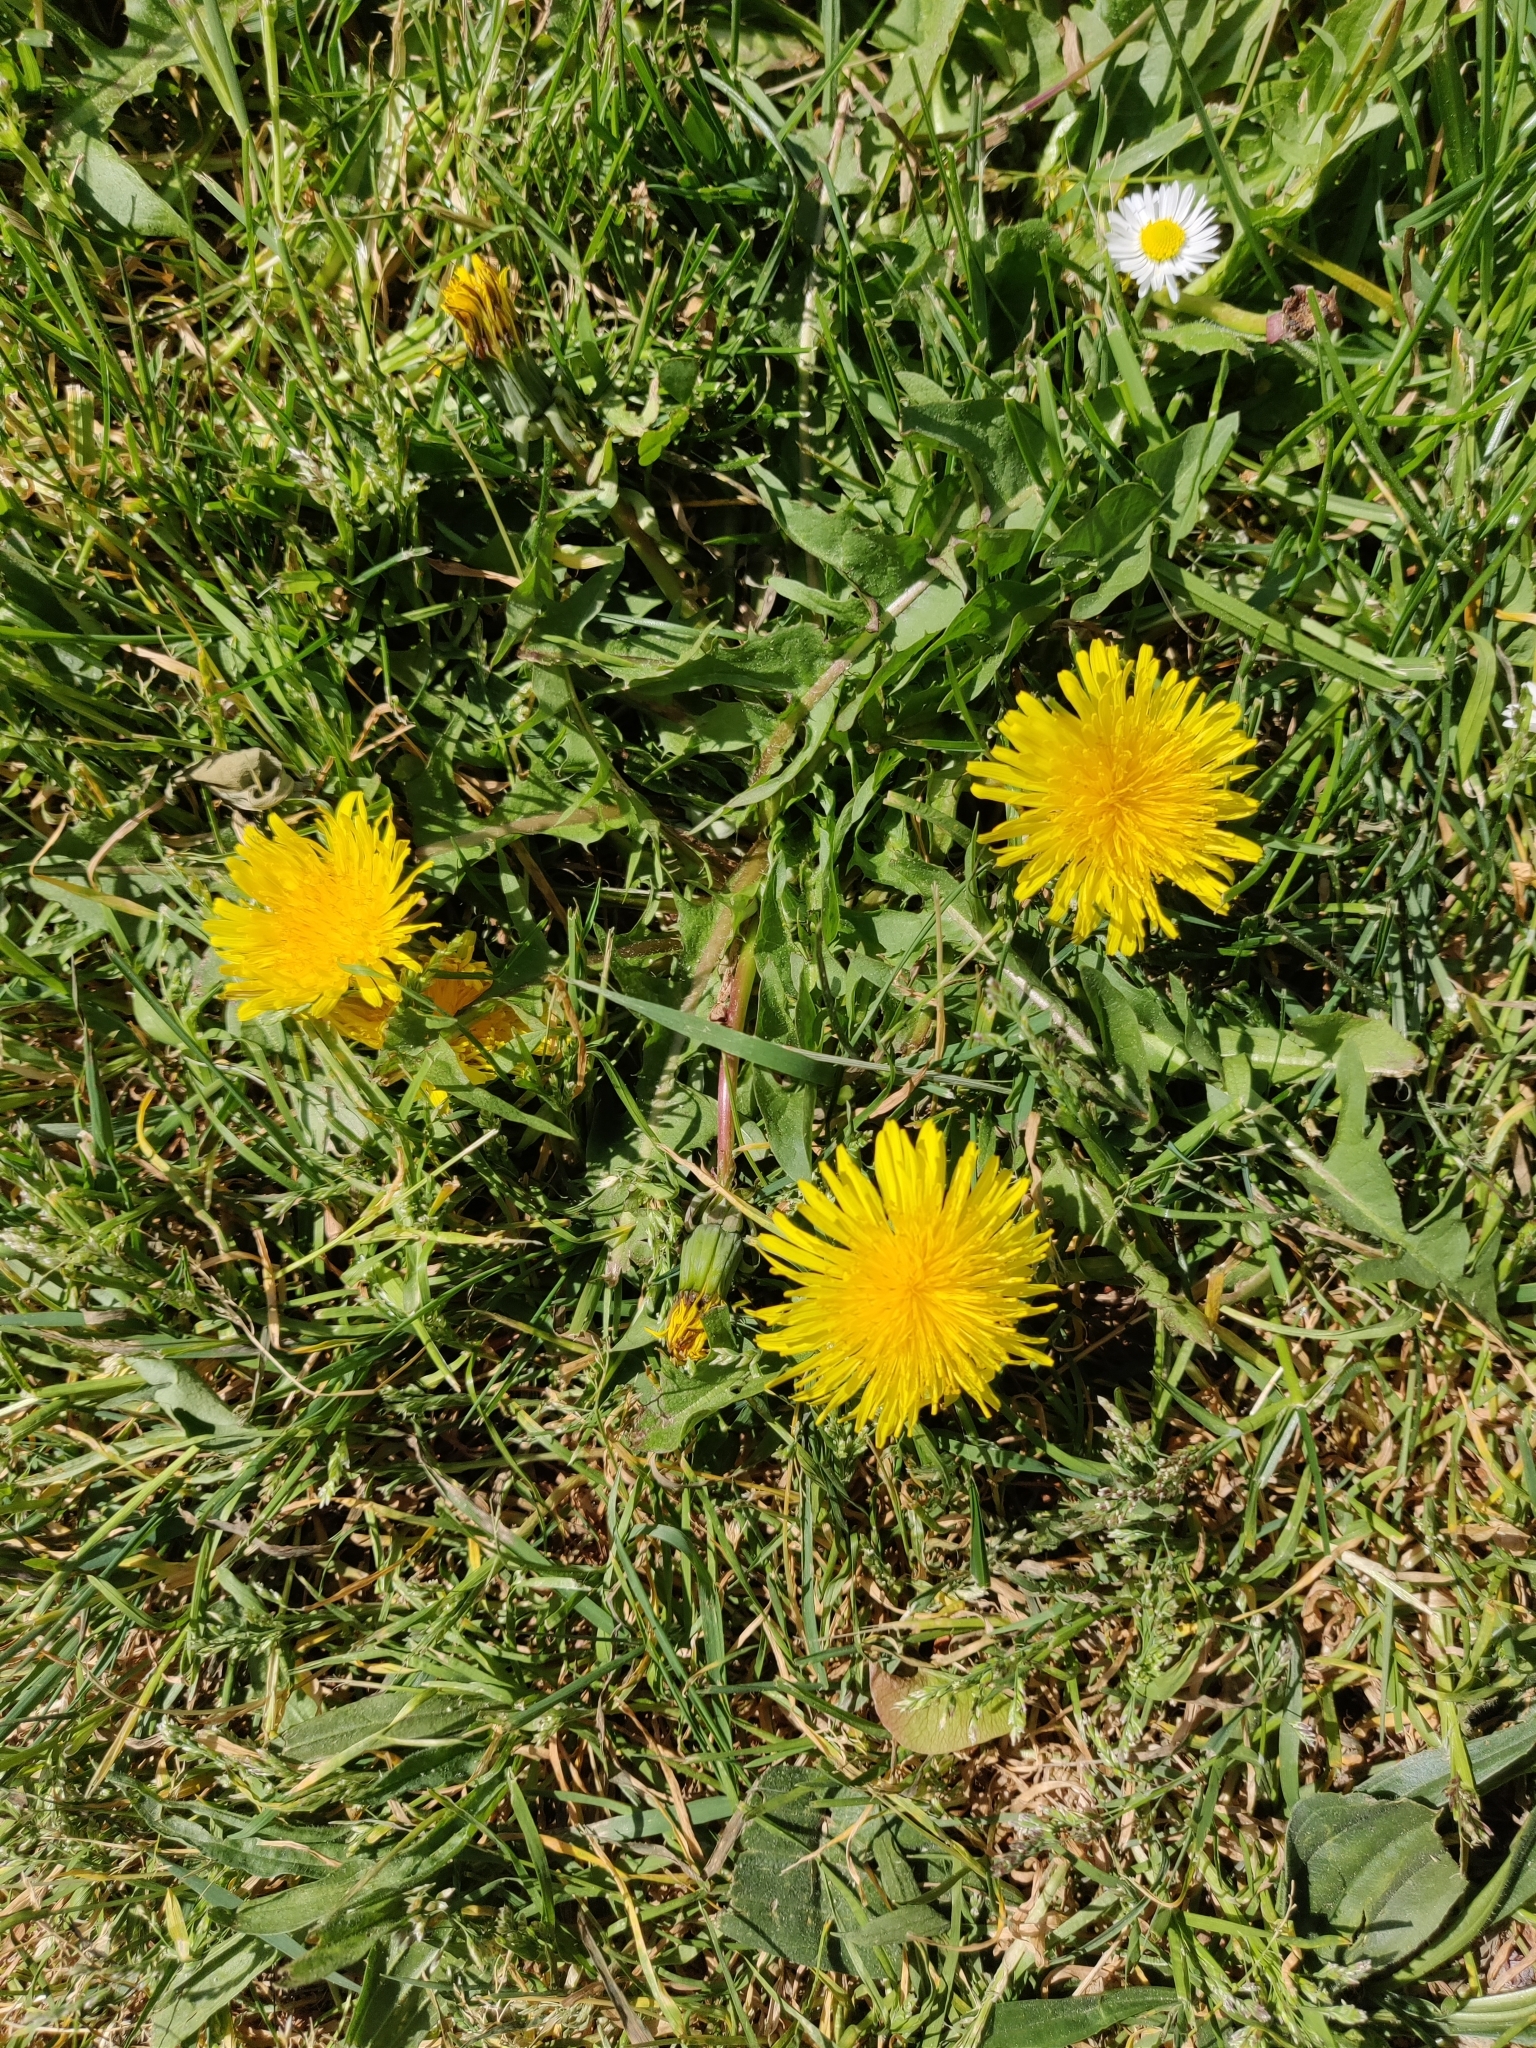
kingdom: Plantae
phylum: Tracheophyta
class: Magnoliopsida
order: Asterales
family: Asteraceae
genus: Taraxacum
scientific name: Taraxacum
